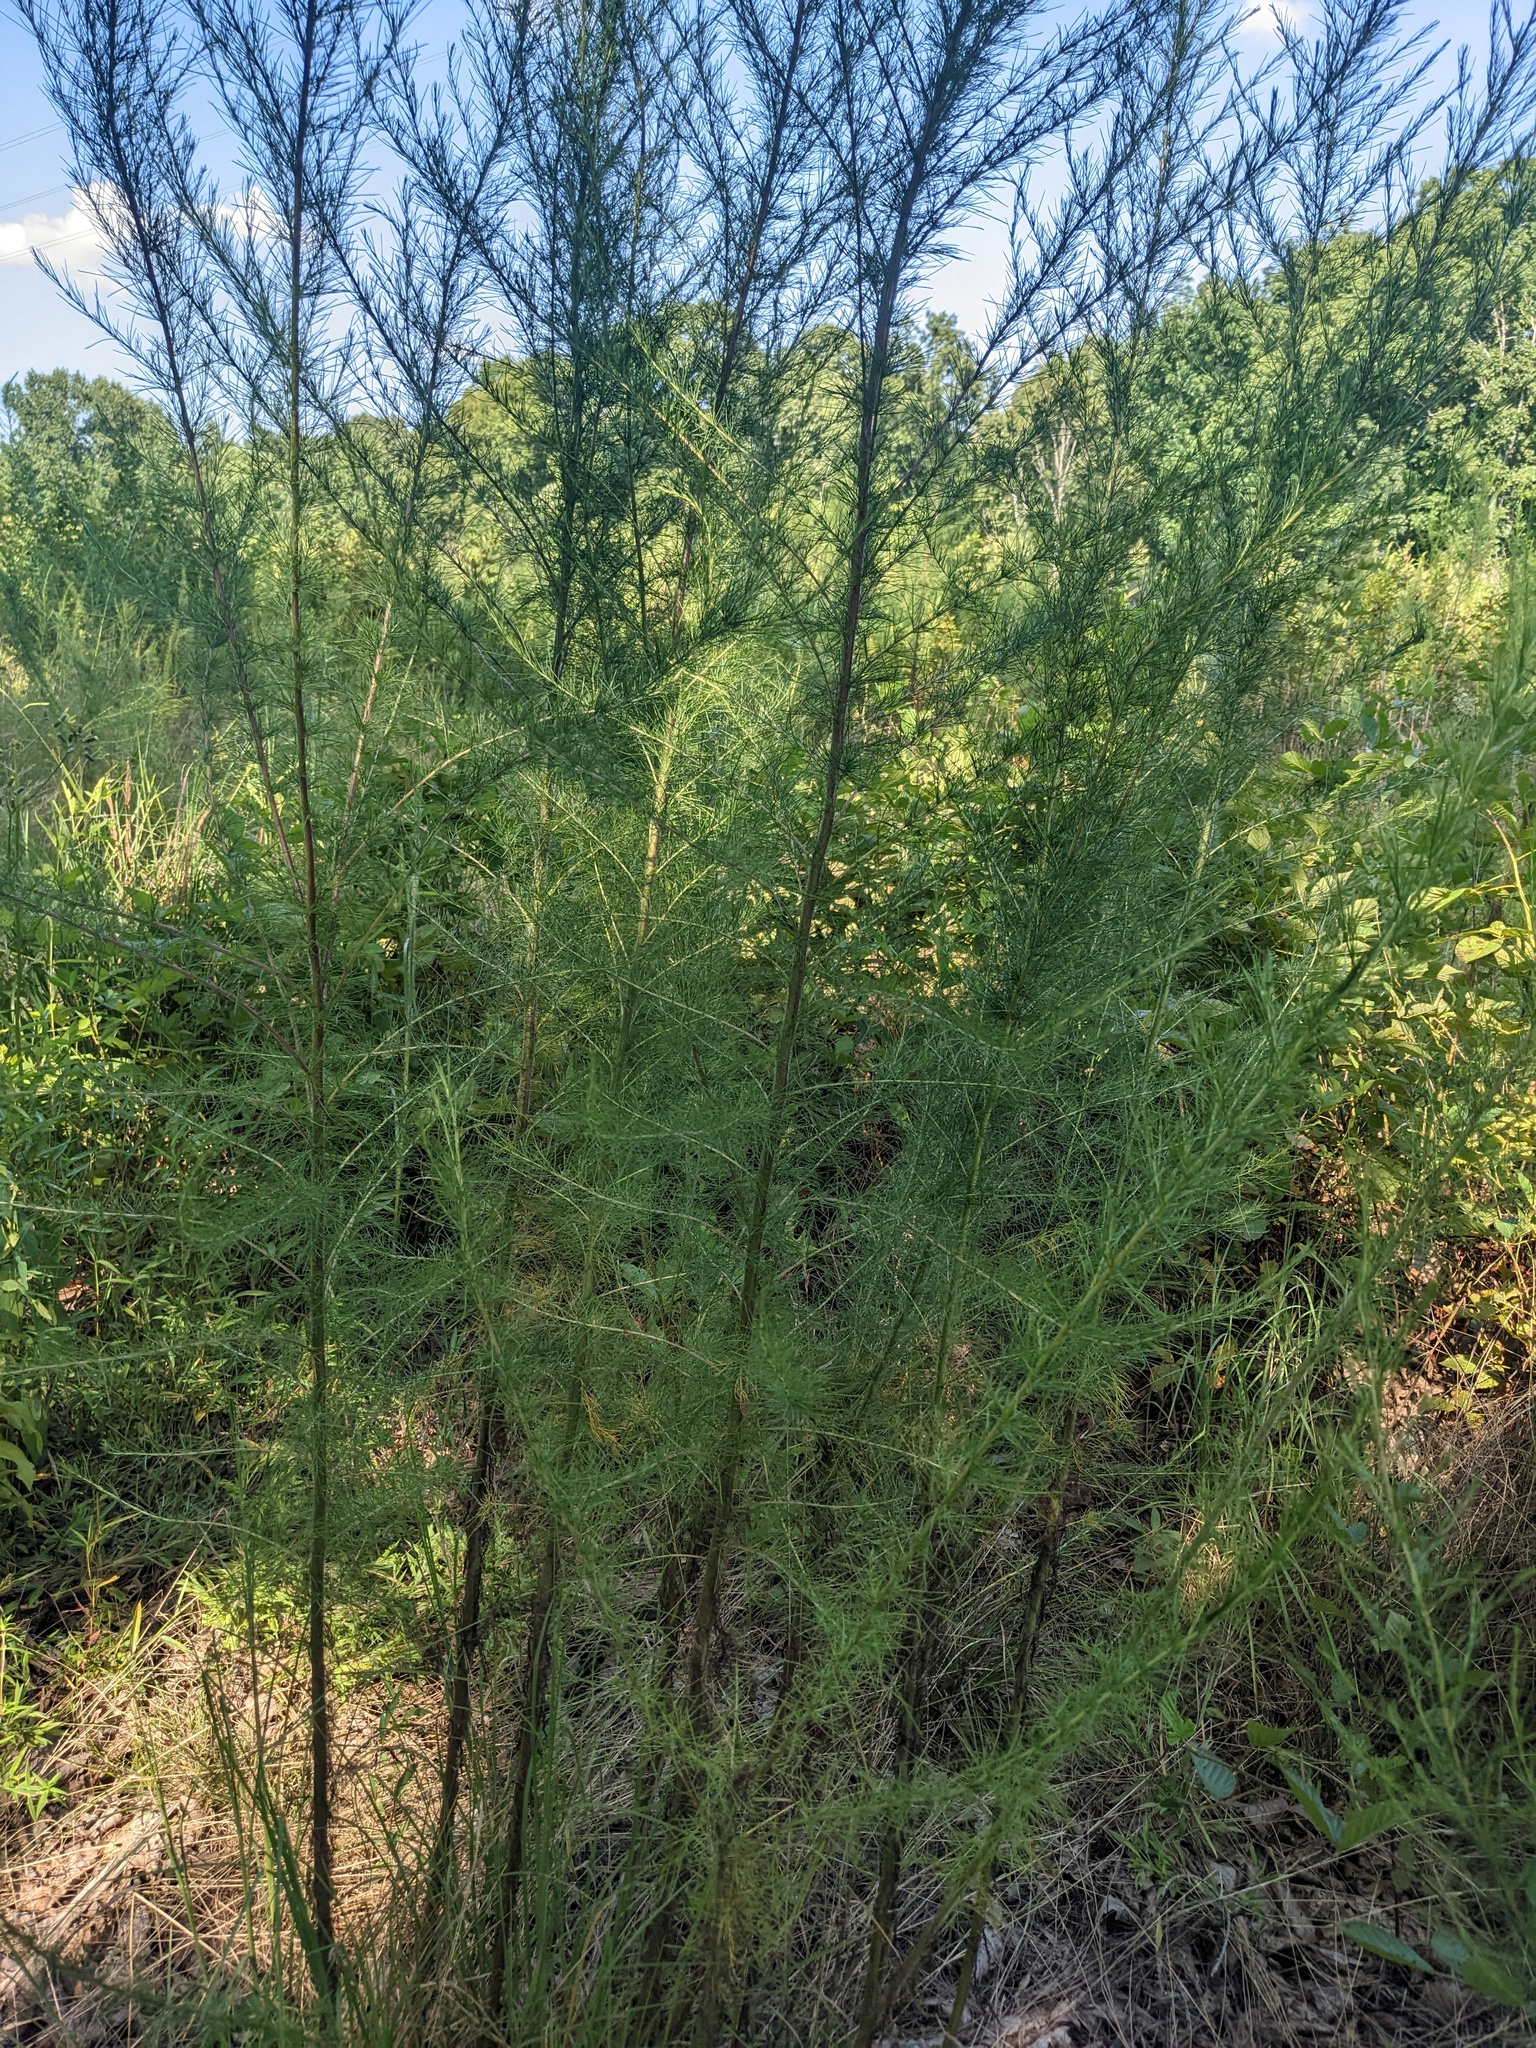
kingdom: Plantae
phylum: Tracheophyta
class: Magnoliopsida
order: Asterales
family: Asteraceae
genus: Eupatorium
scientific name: Eupatorium capillifolium
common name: Dog-fennel
